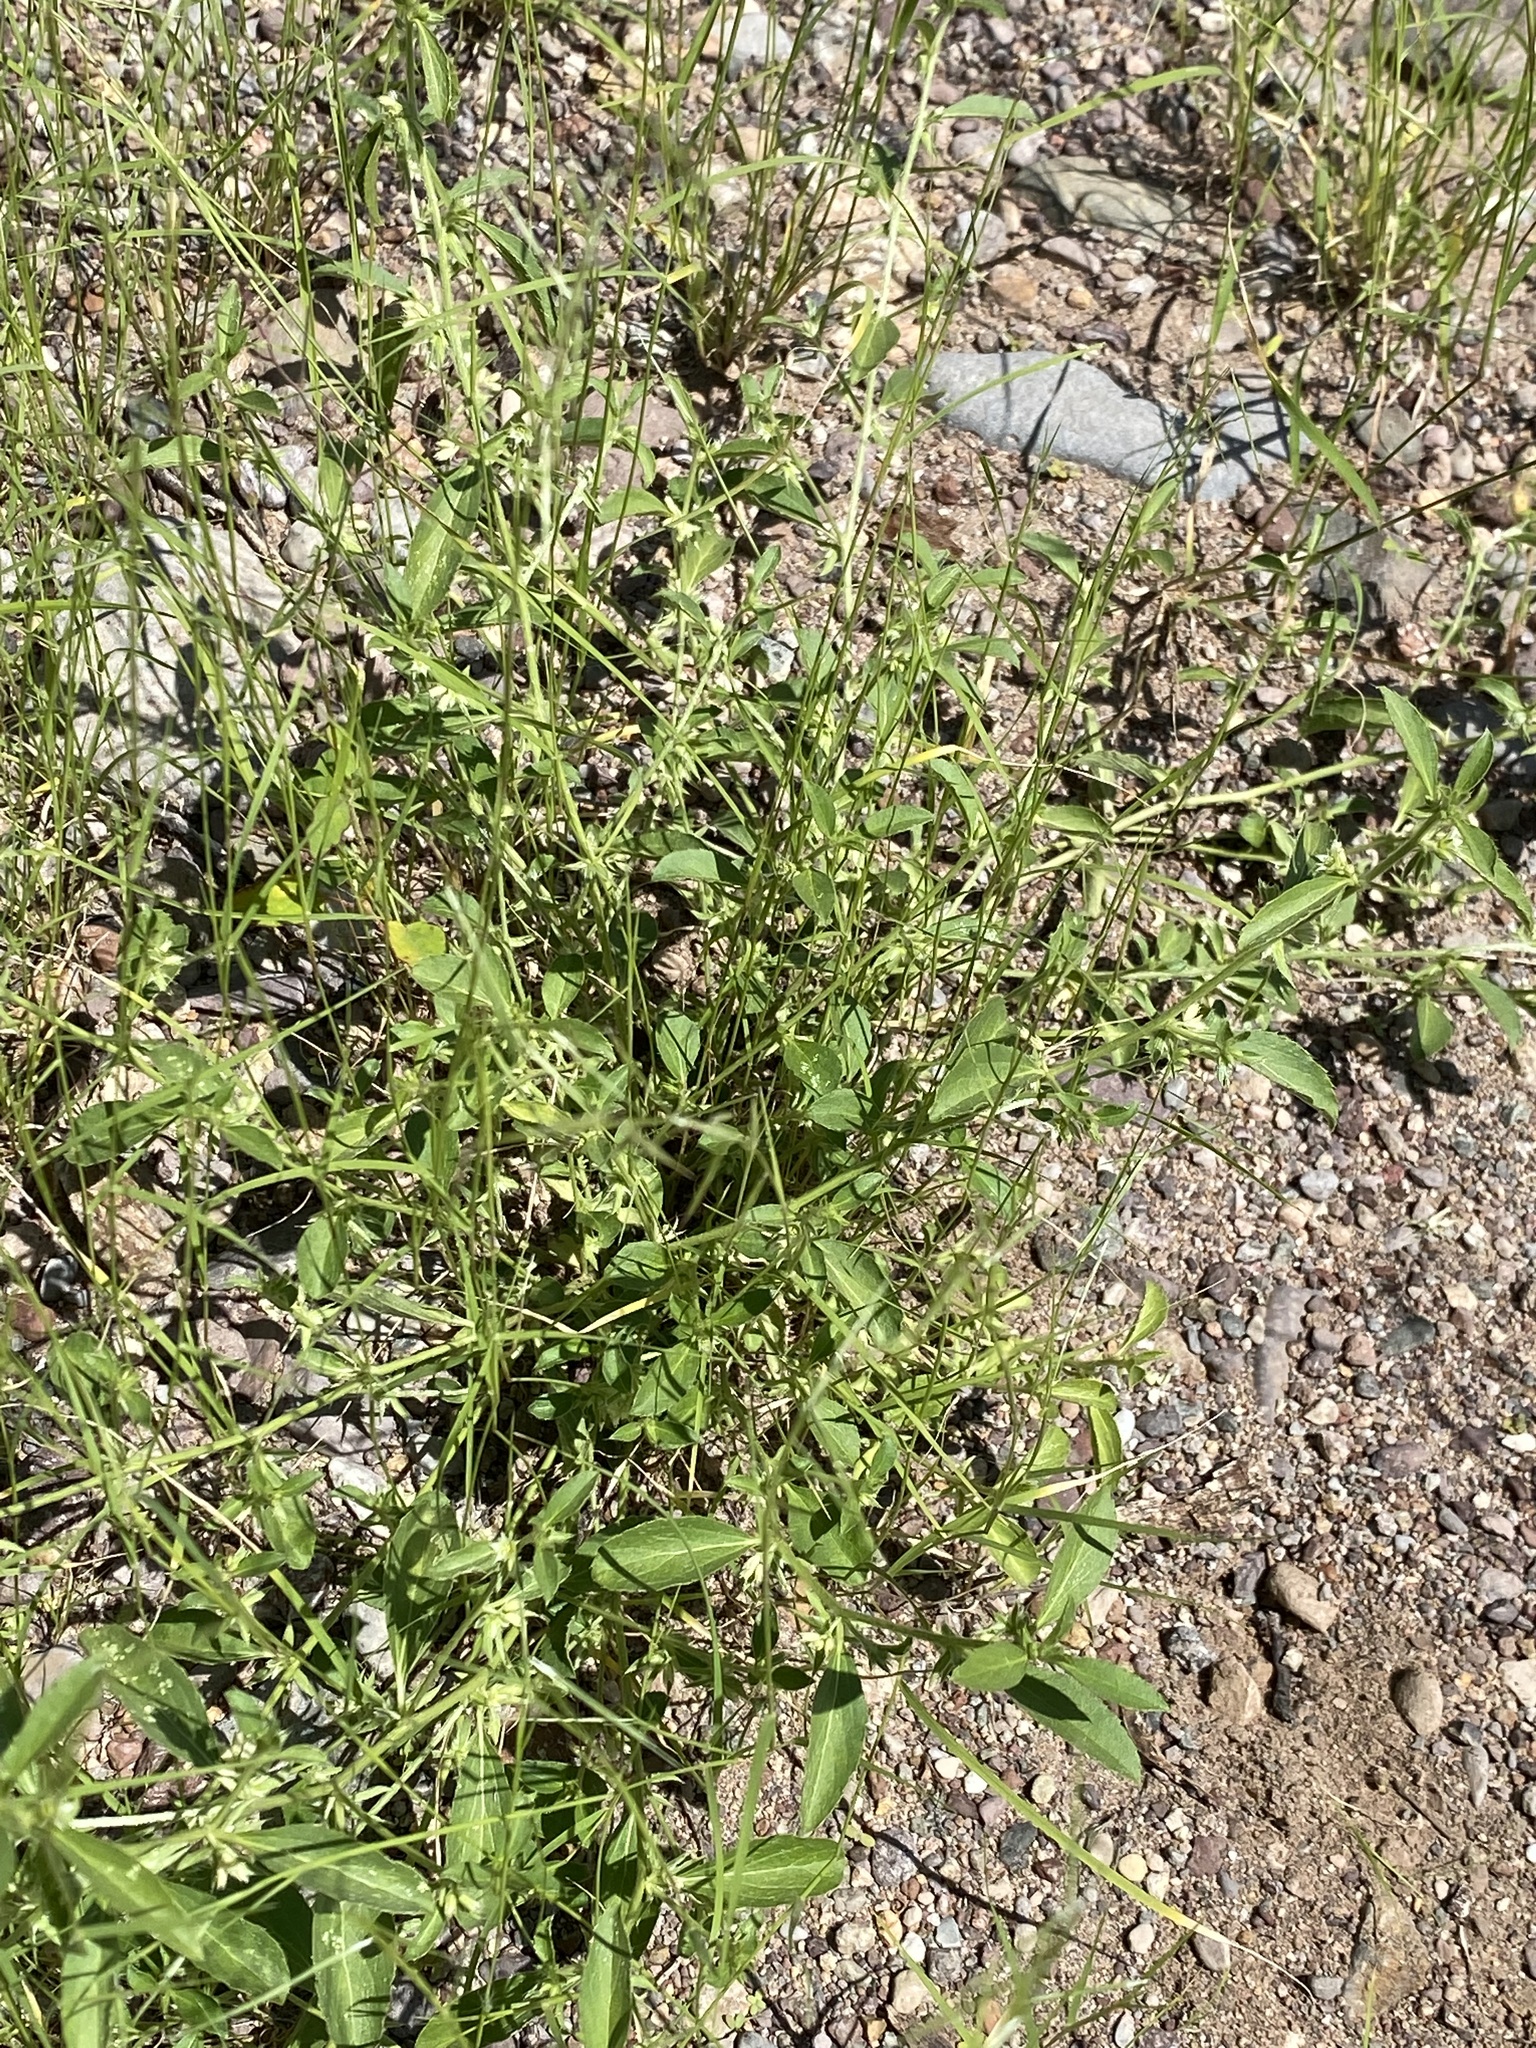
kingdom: Plantae
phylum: Tracheophyta
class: Magnoliopsida
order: Malpighiales
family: Euphorbiaceae
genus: Ditaxis
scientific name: Ditaxis serrata
